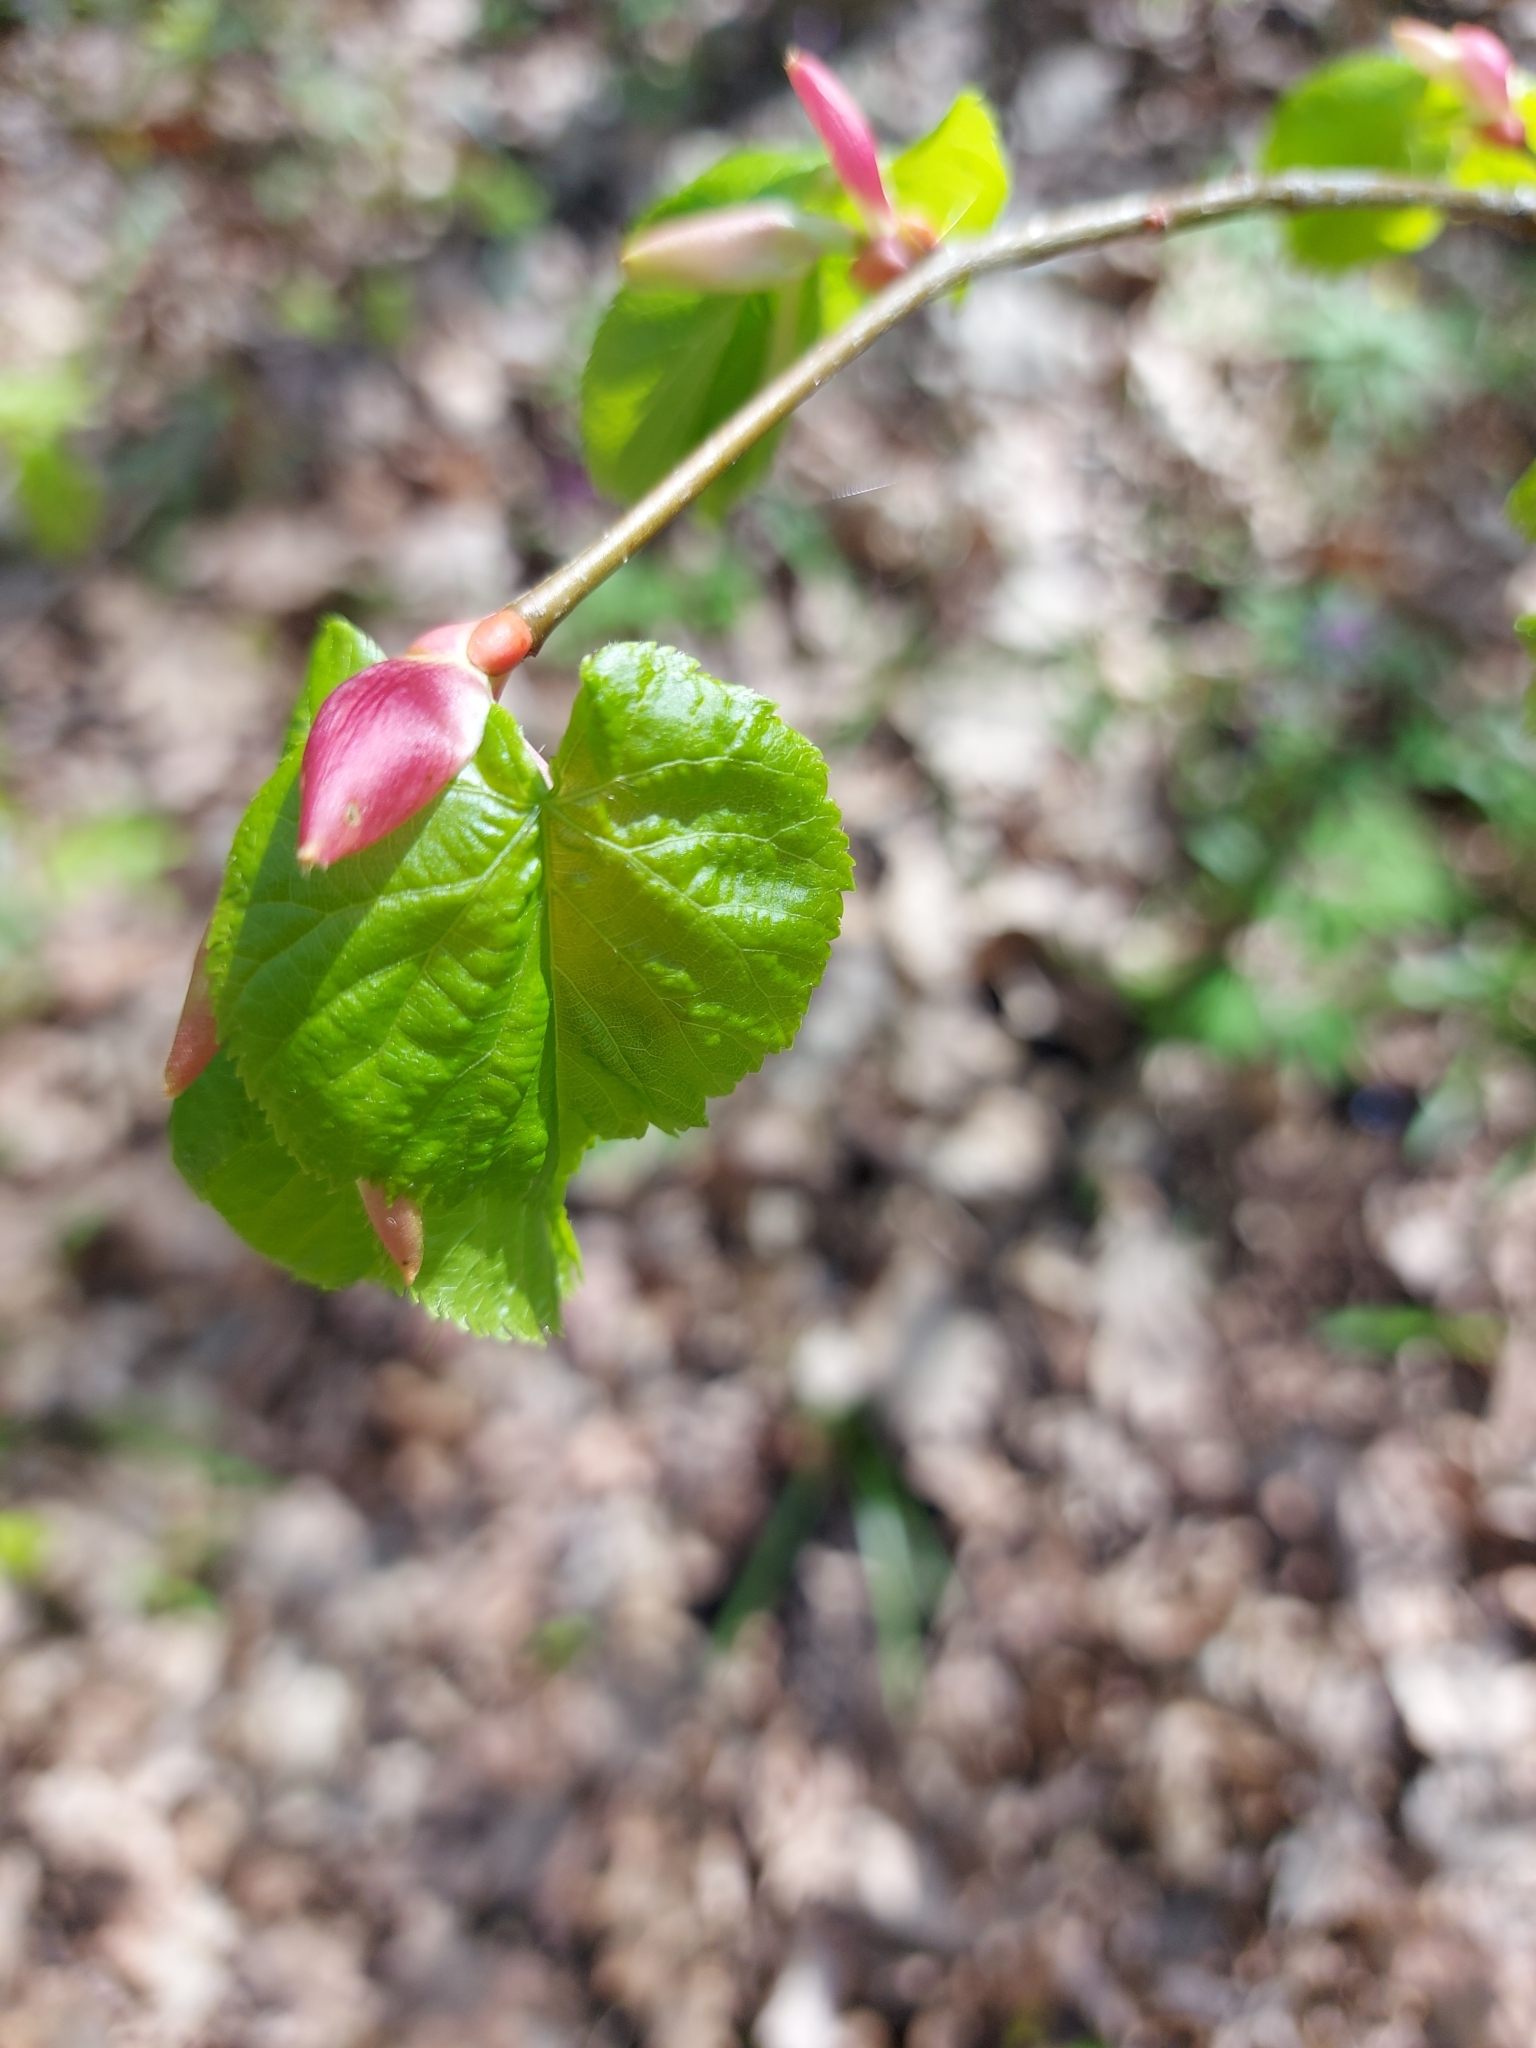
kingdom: Plantae
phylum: Tracheophyta
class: Magnoliopsida
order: Malvales
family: Malvaceae
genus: Tilia
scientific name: Tilia cordata
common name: Small-leaved lime
